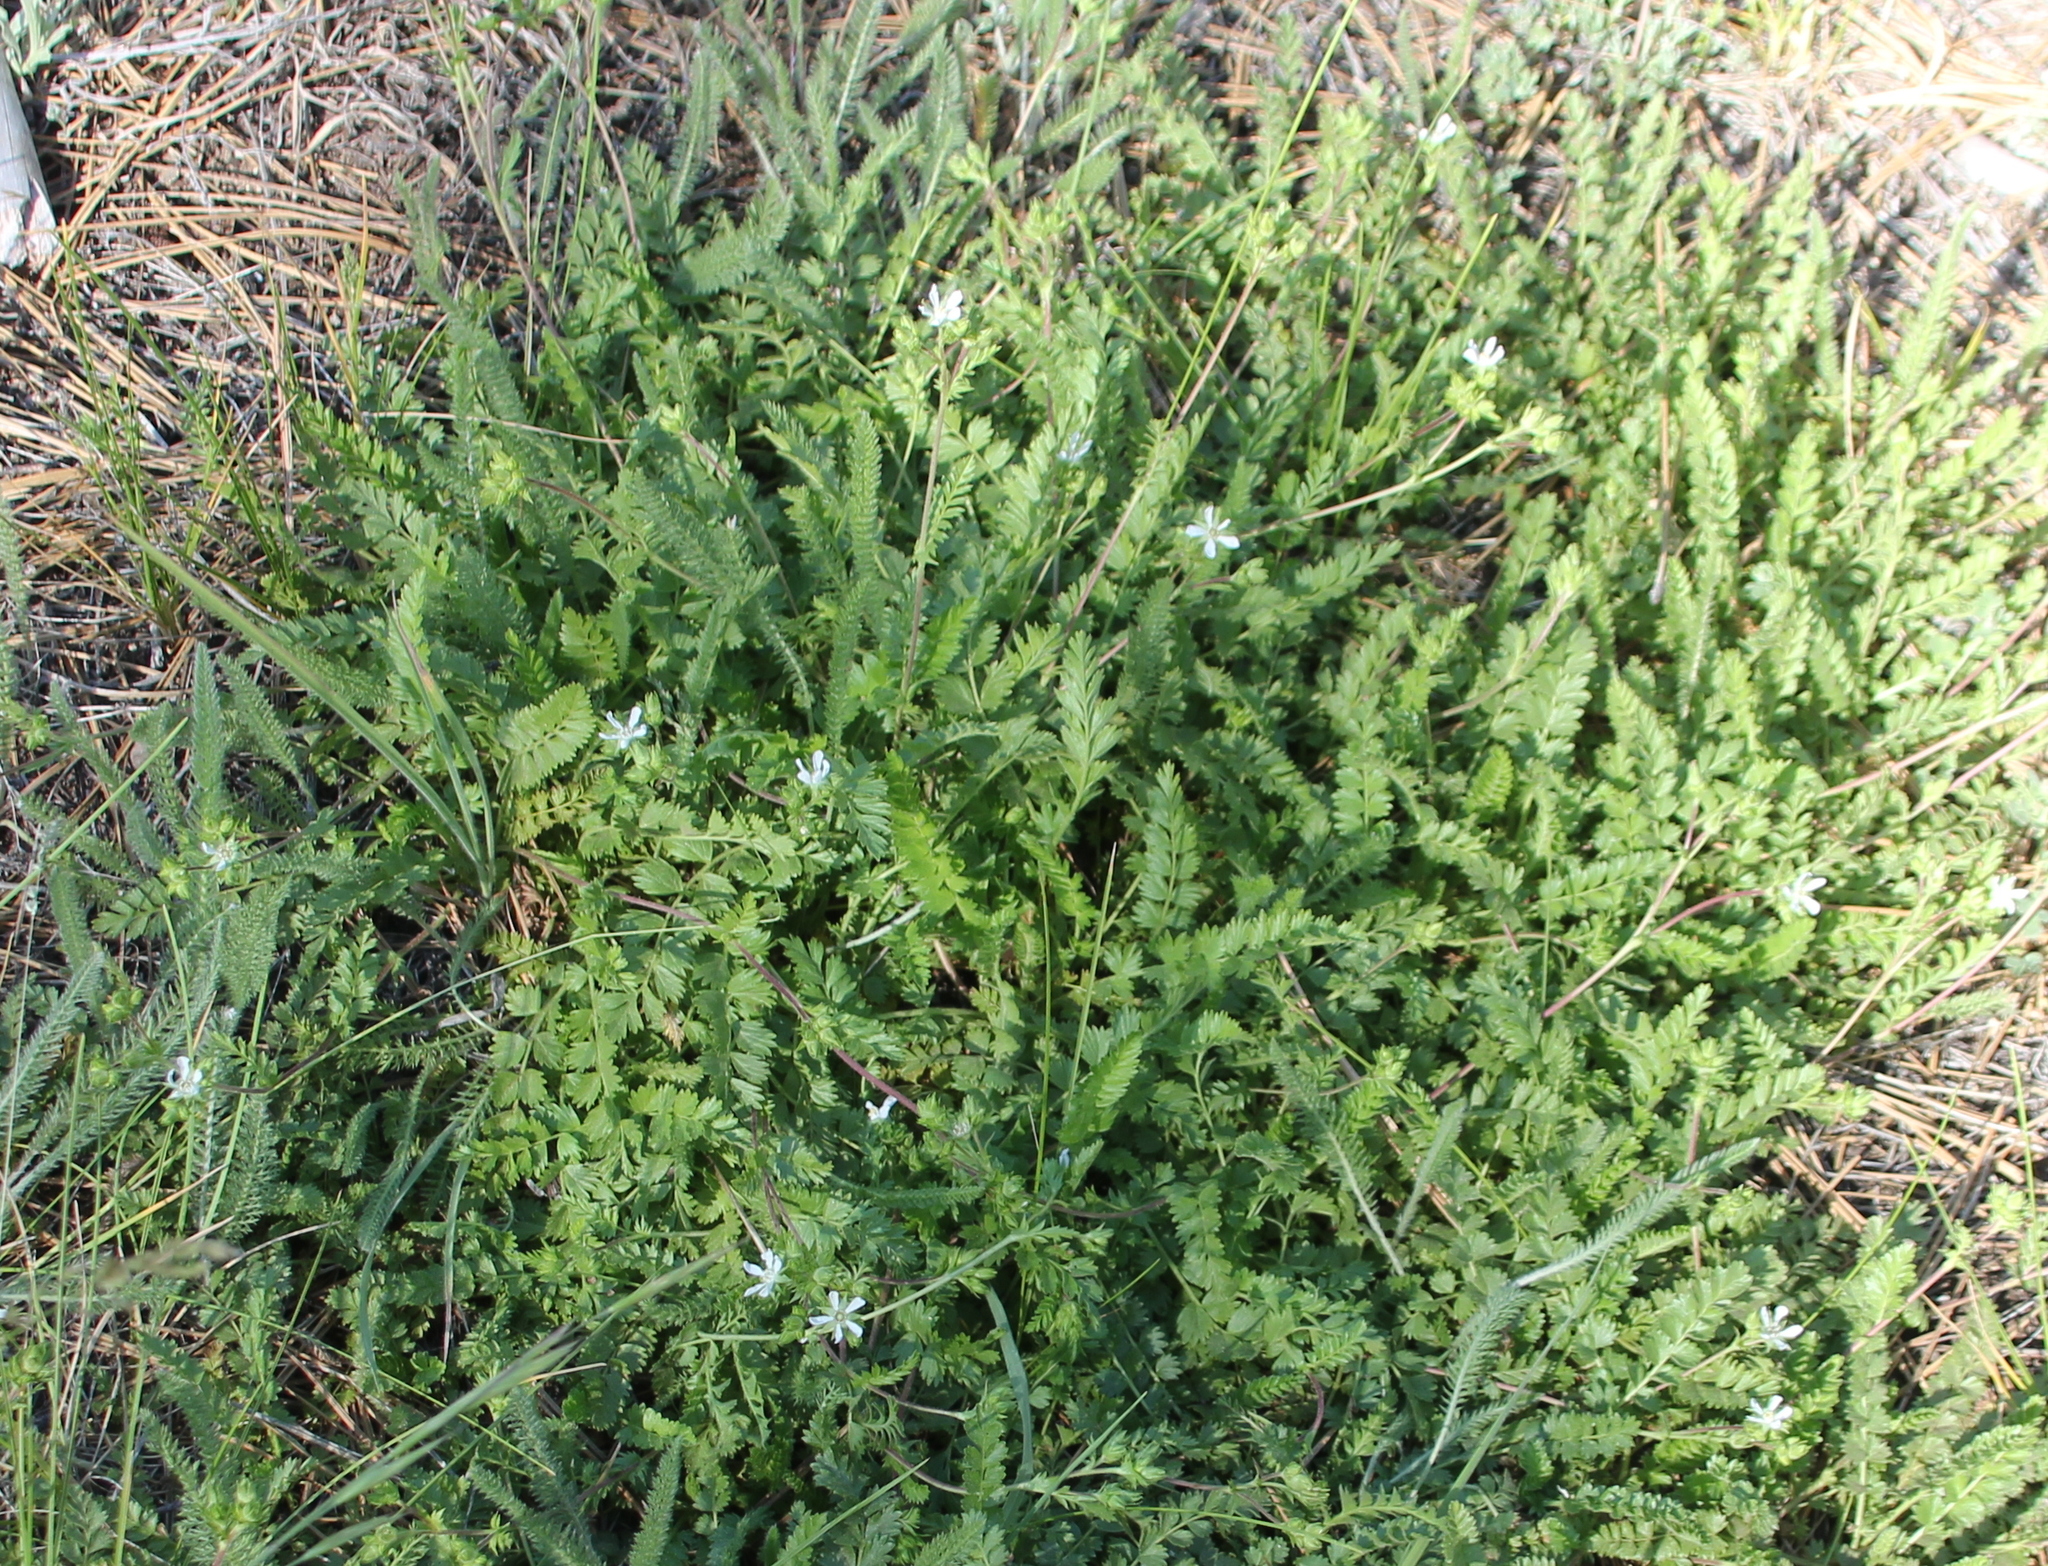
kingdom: Plantae
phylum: Tracheophyta
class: Magnoliopsida
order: Rosales
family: Rosaceae
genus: Potentilla
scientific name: Potentilla clevelandii
